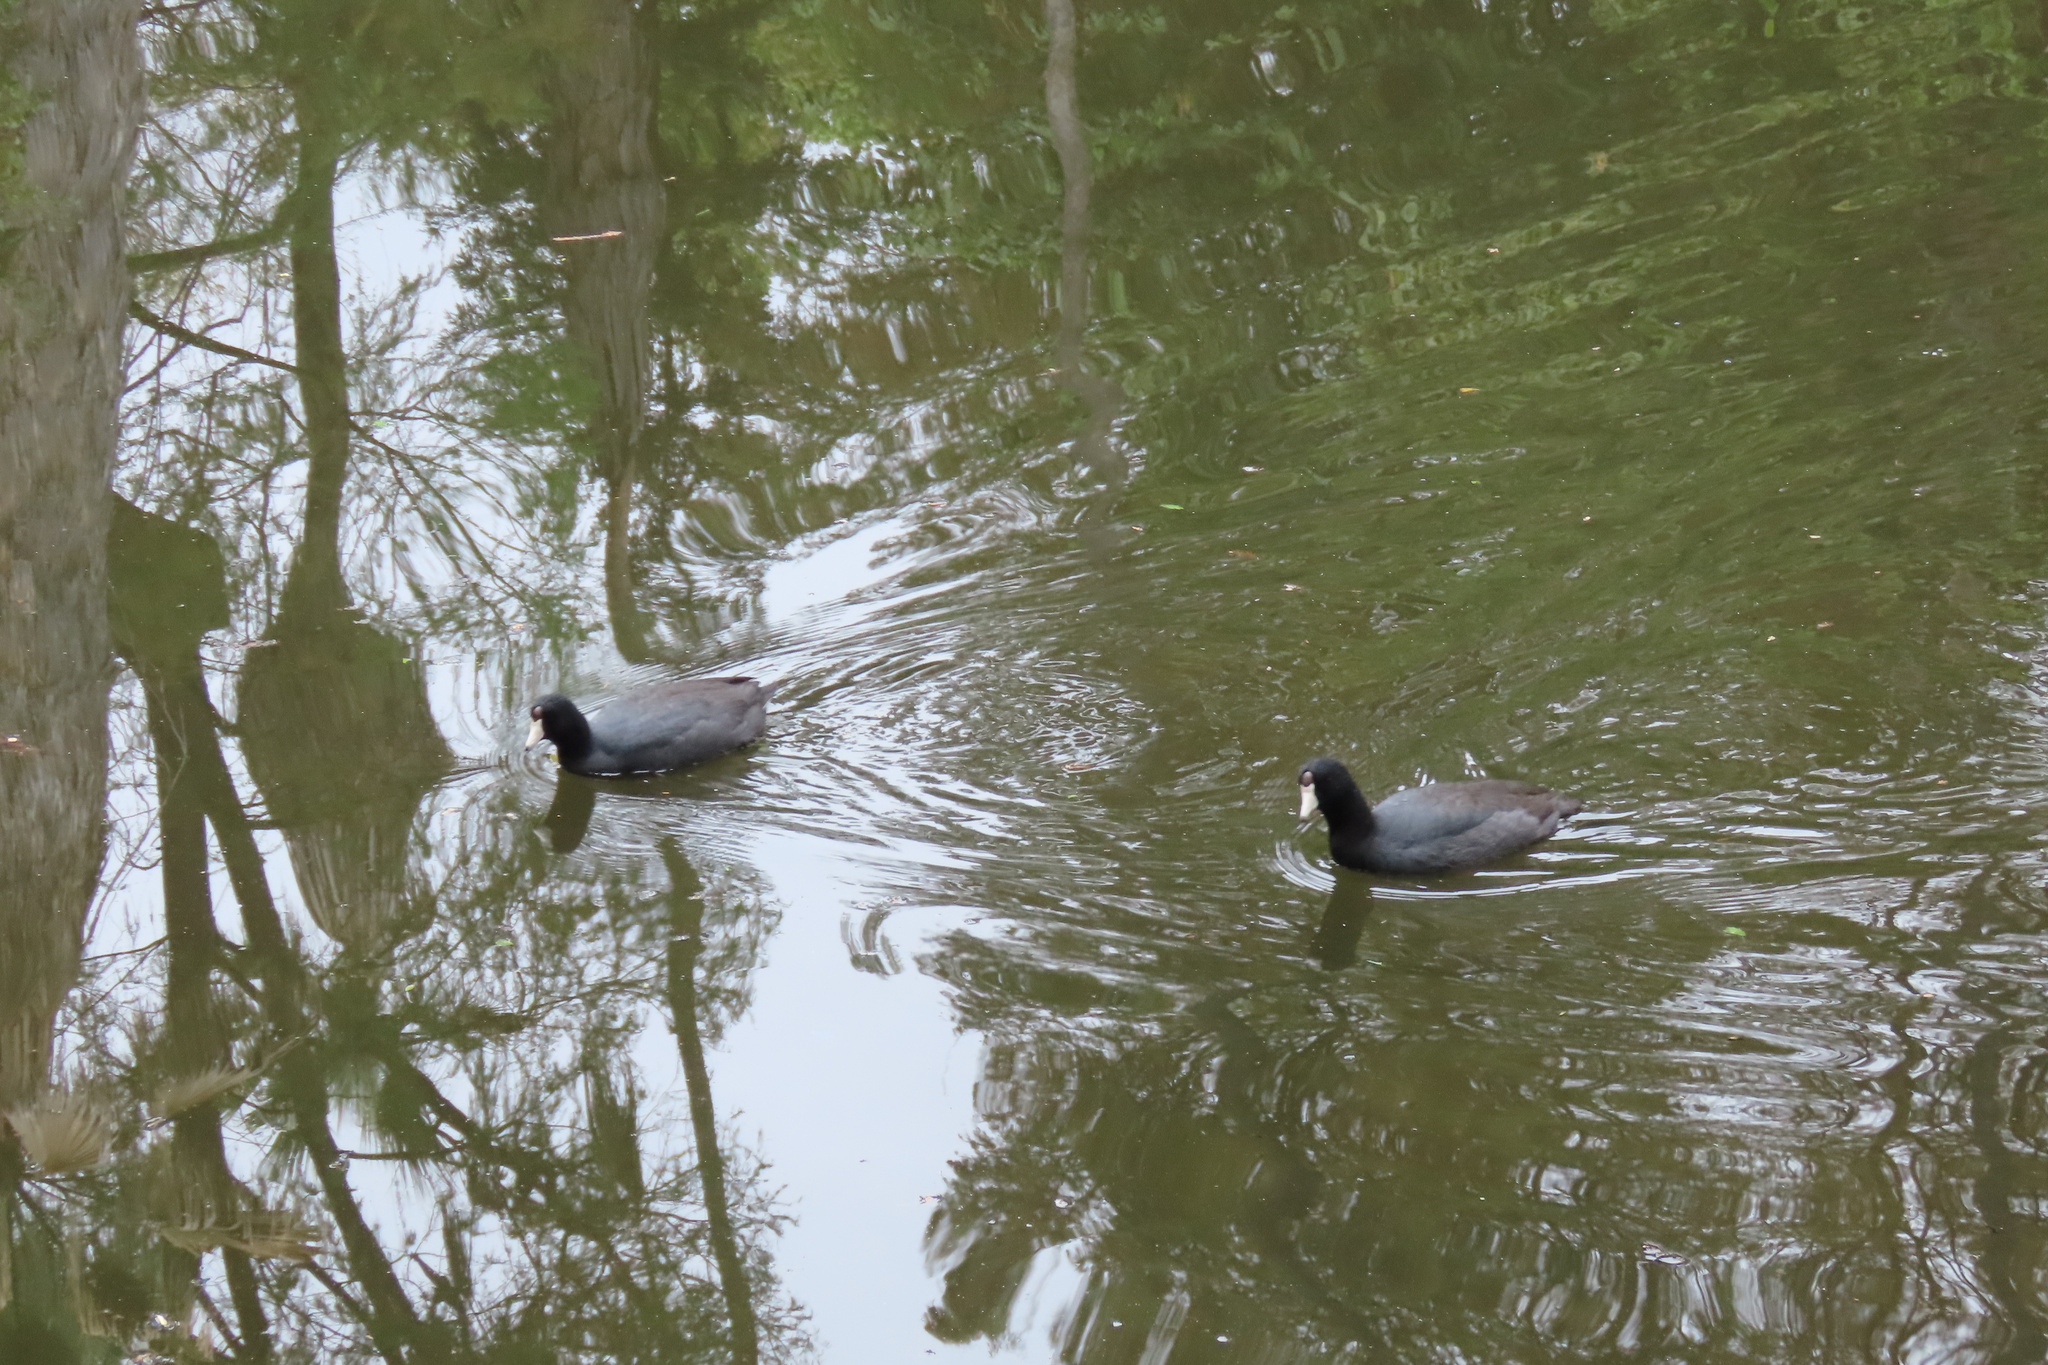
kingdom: Animalia
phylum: Chordata
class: Aves
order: Gruiformes
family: Rallidae
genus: Fulica
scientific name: Fulica americana
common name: American coot
